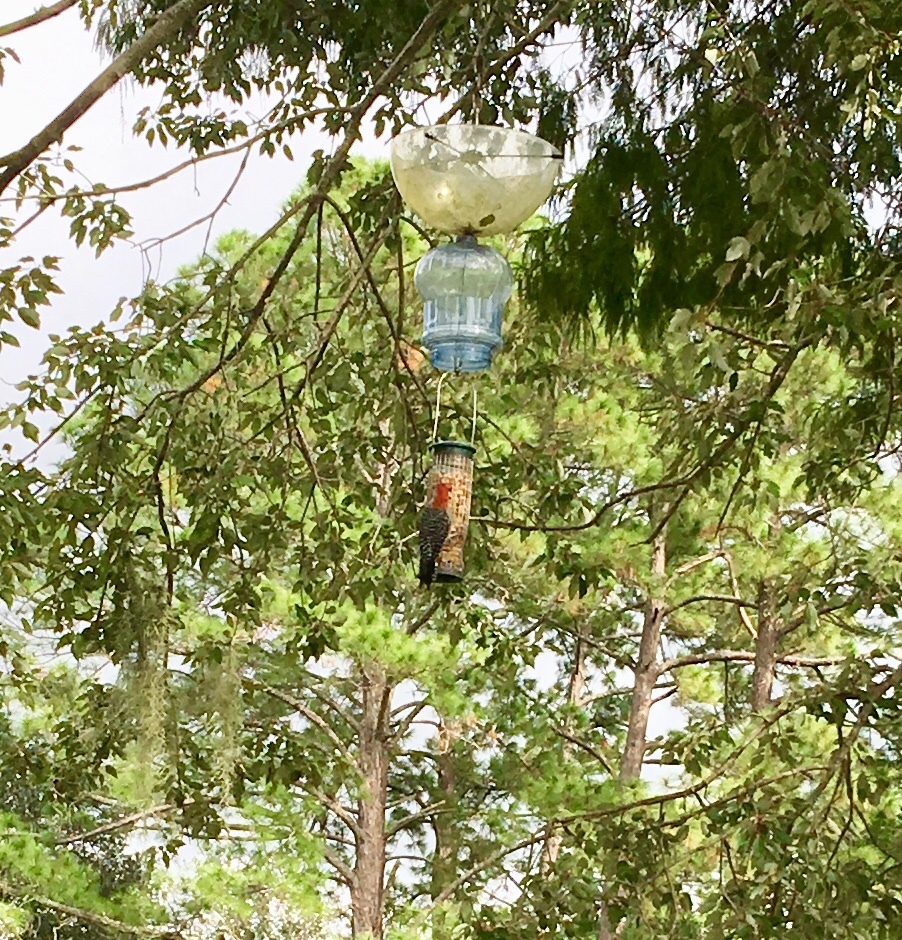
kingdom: Animalia
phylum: Chordata
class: Aves
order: Piciformes
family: Picidae
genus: Melanerpes
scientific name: Melanerpes carolinus
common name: Red-bellied woodpecker
